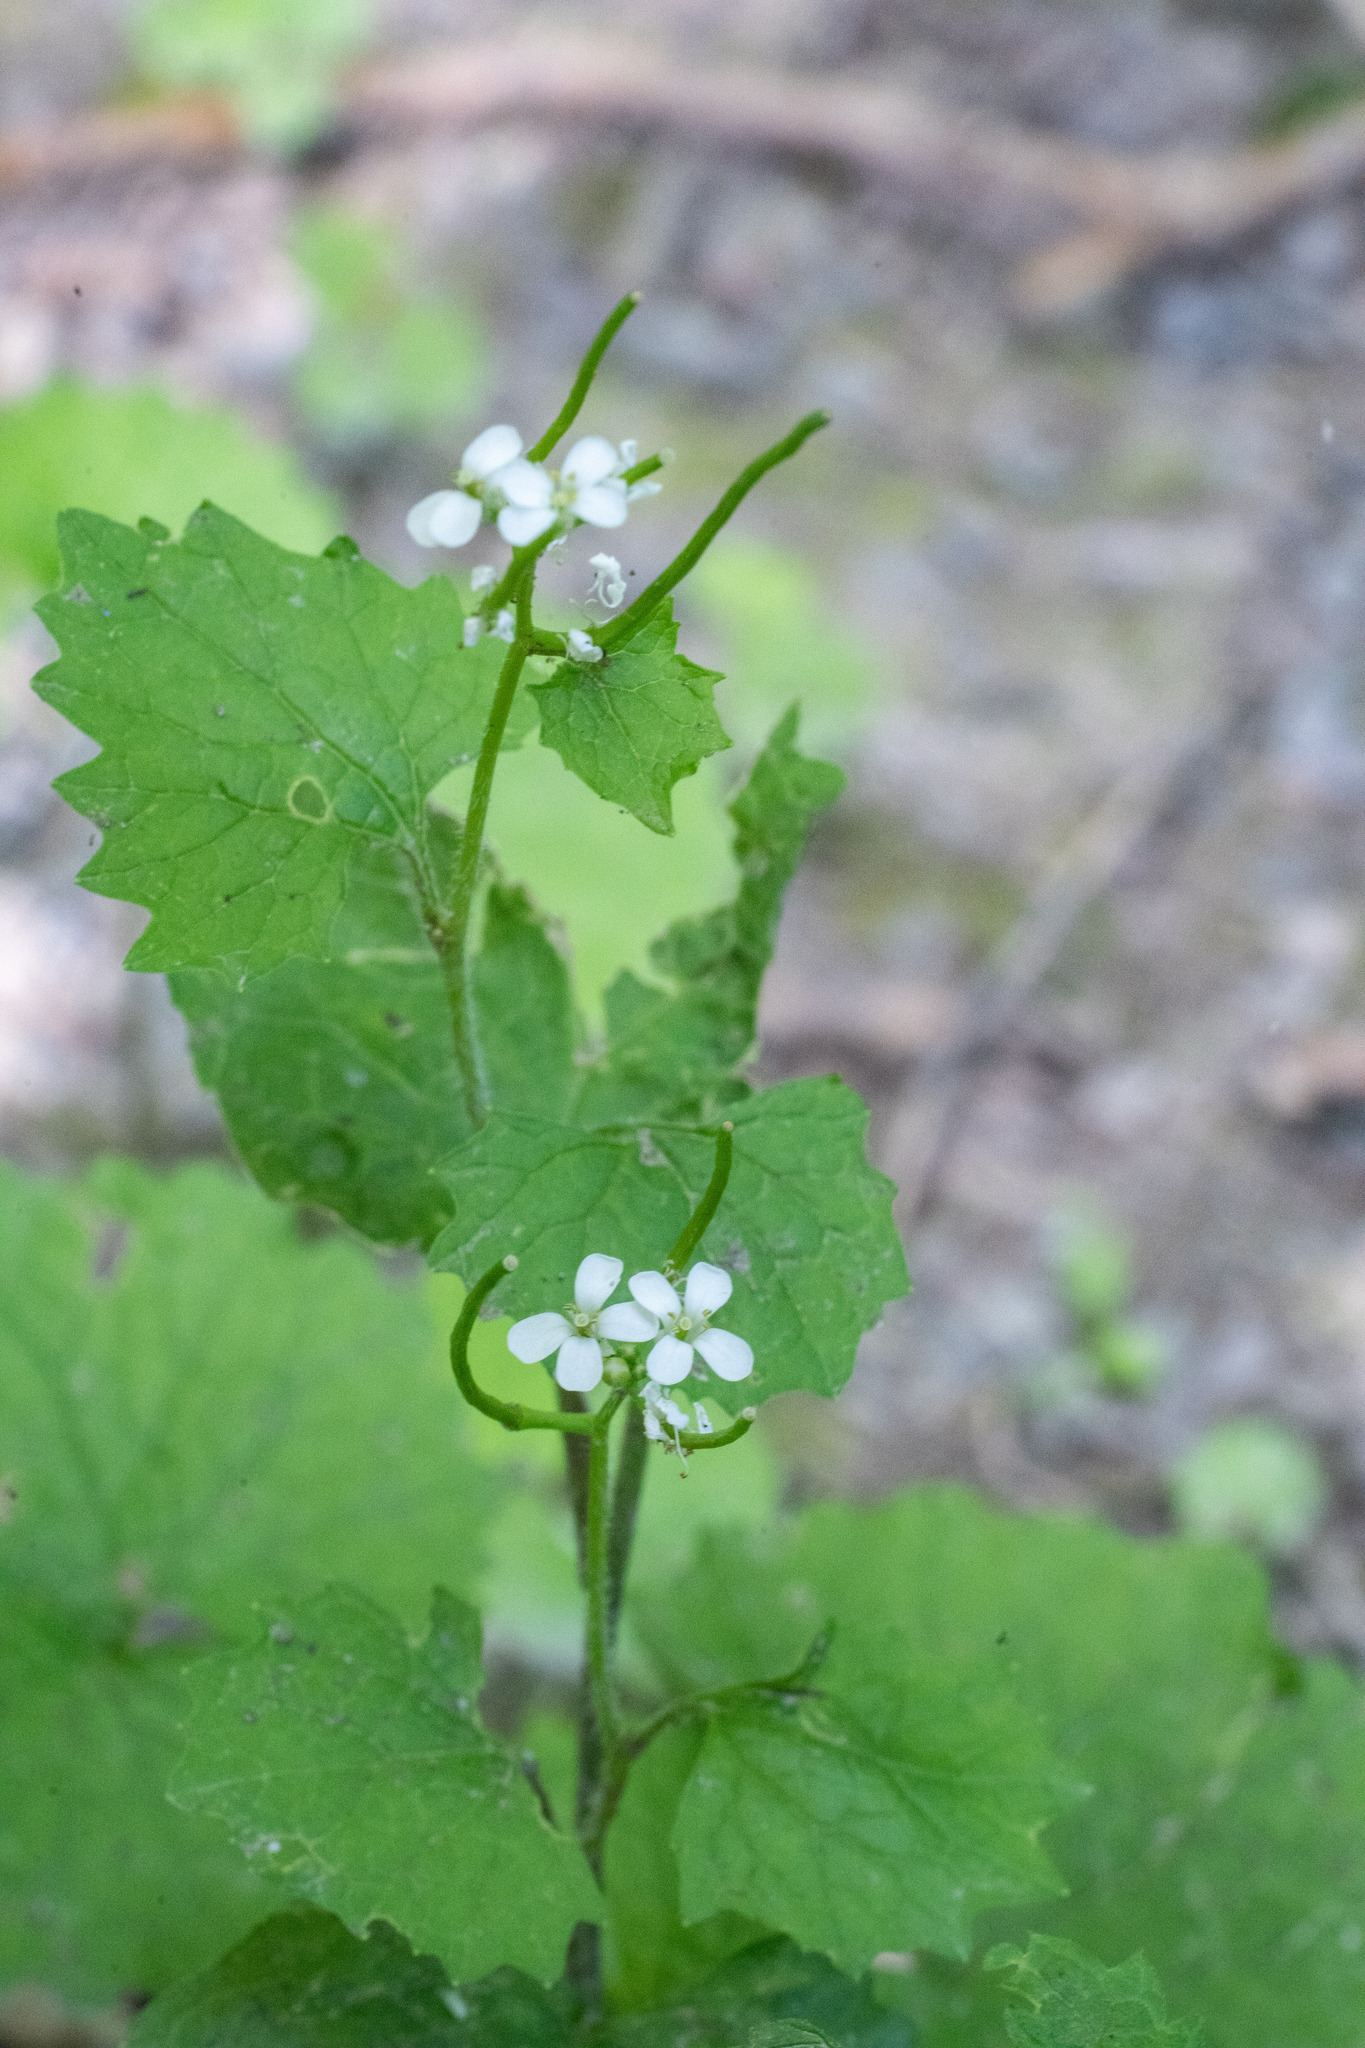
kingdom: Plantae
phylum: Tracheophyta
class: Magnoliopsida
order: Brassicales
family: Brassicaceae
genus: Alliaria
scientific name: Alliaria petiolata
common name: Garlic mustard
